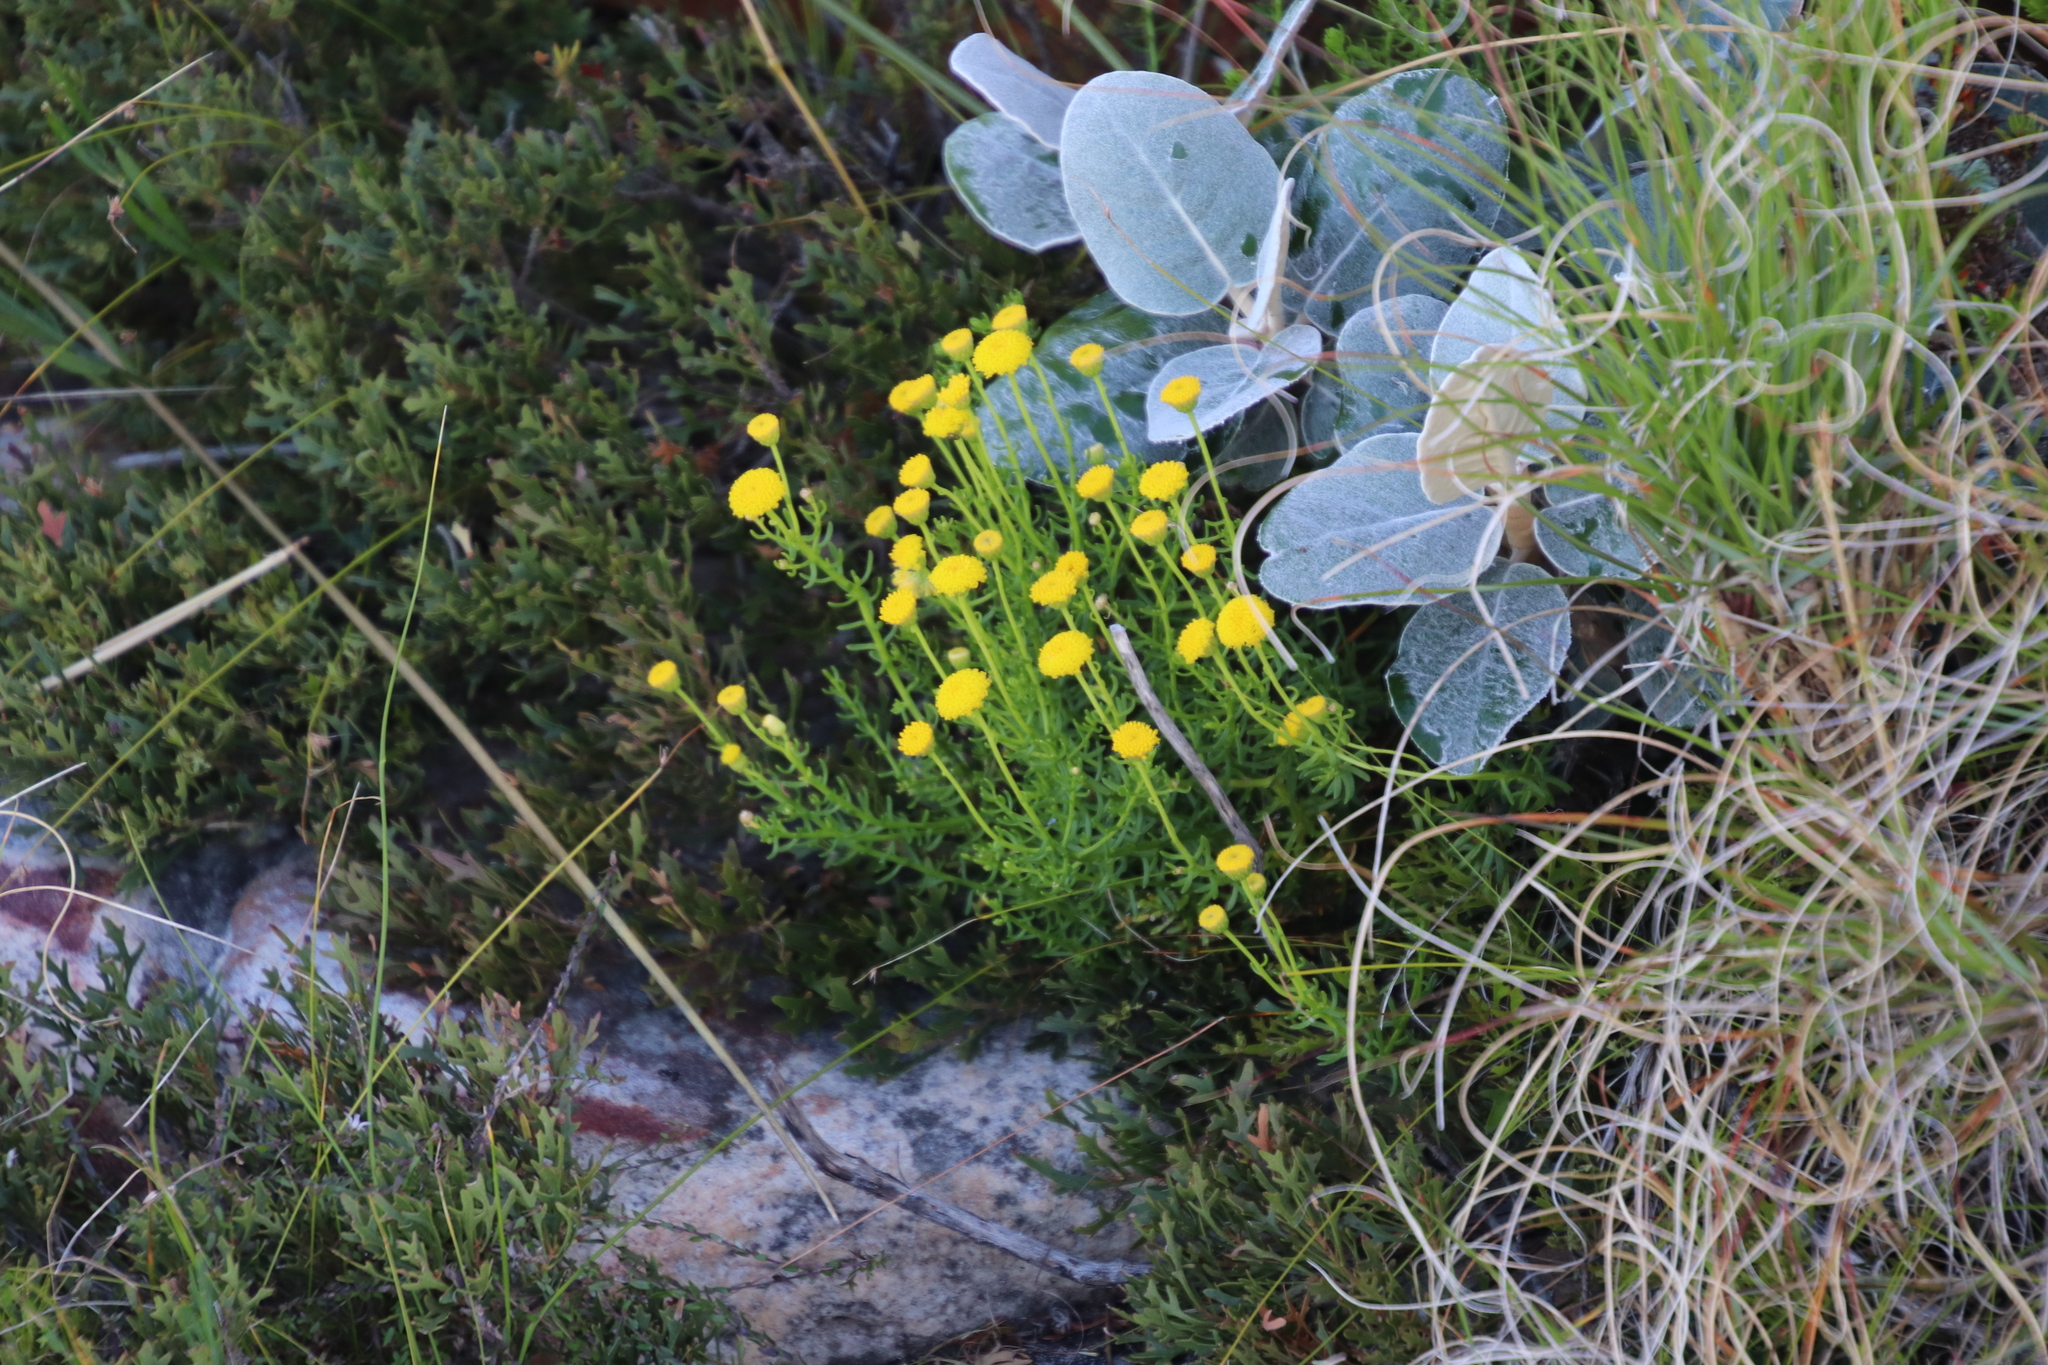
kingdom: Plantae
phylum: Tracheophyta
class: Magnoliopsida
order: Asterales
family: Asteraceae
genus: Chrysocoma
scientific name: Chrysocoma cernua
